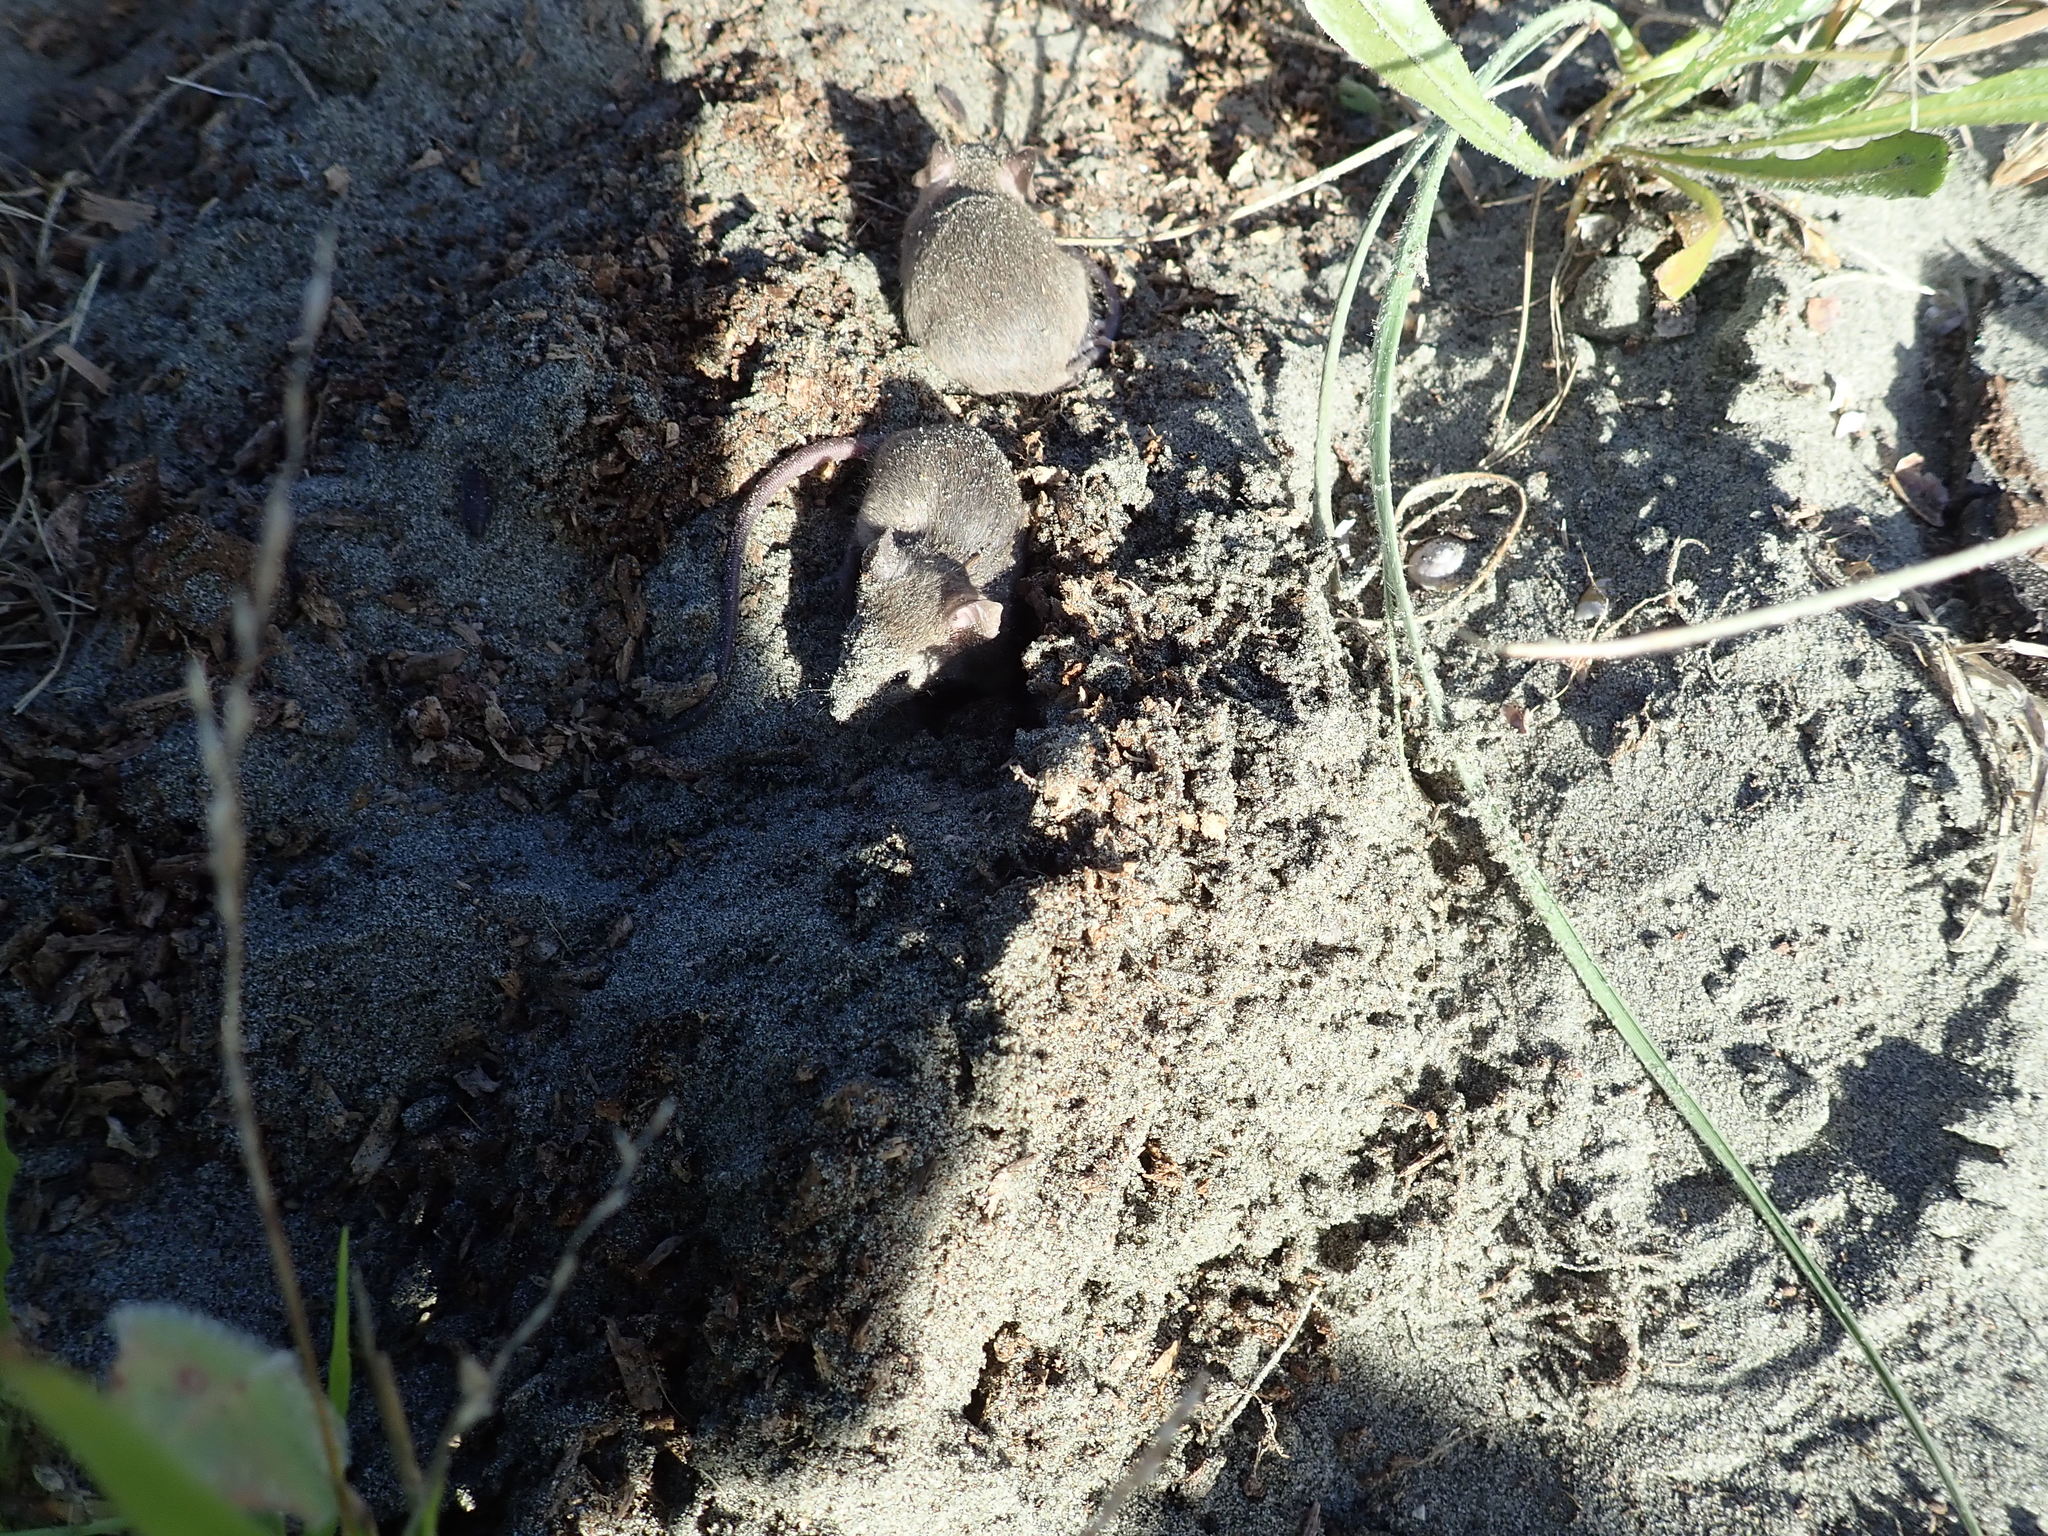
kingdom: Animalia
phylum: Chordata
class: Mammalia
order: Rodentia
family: Muridae
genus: Mus
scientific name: Mus musculus
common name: House mouse
